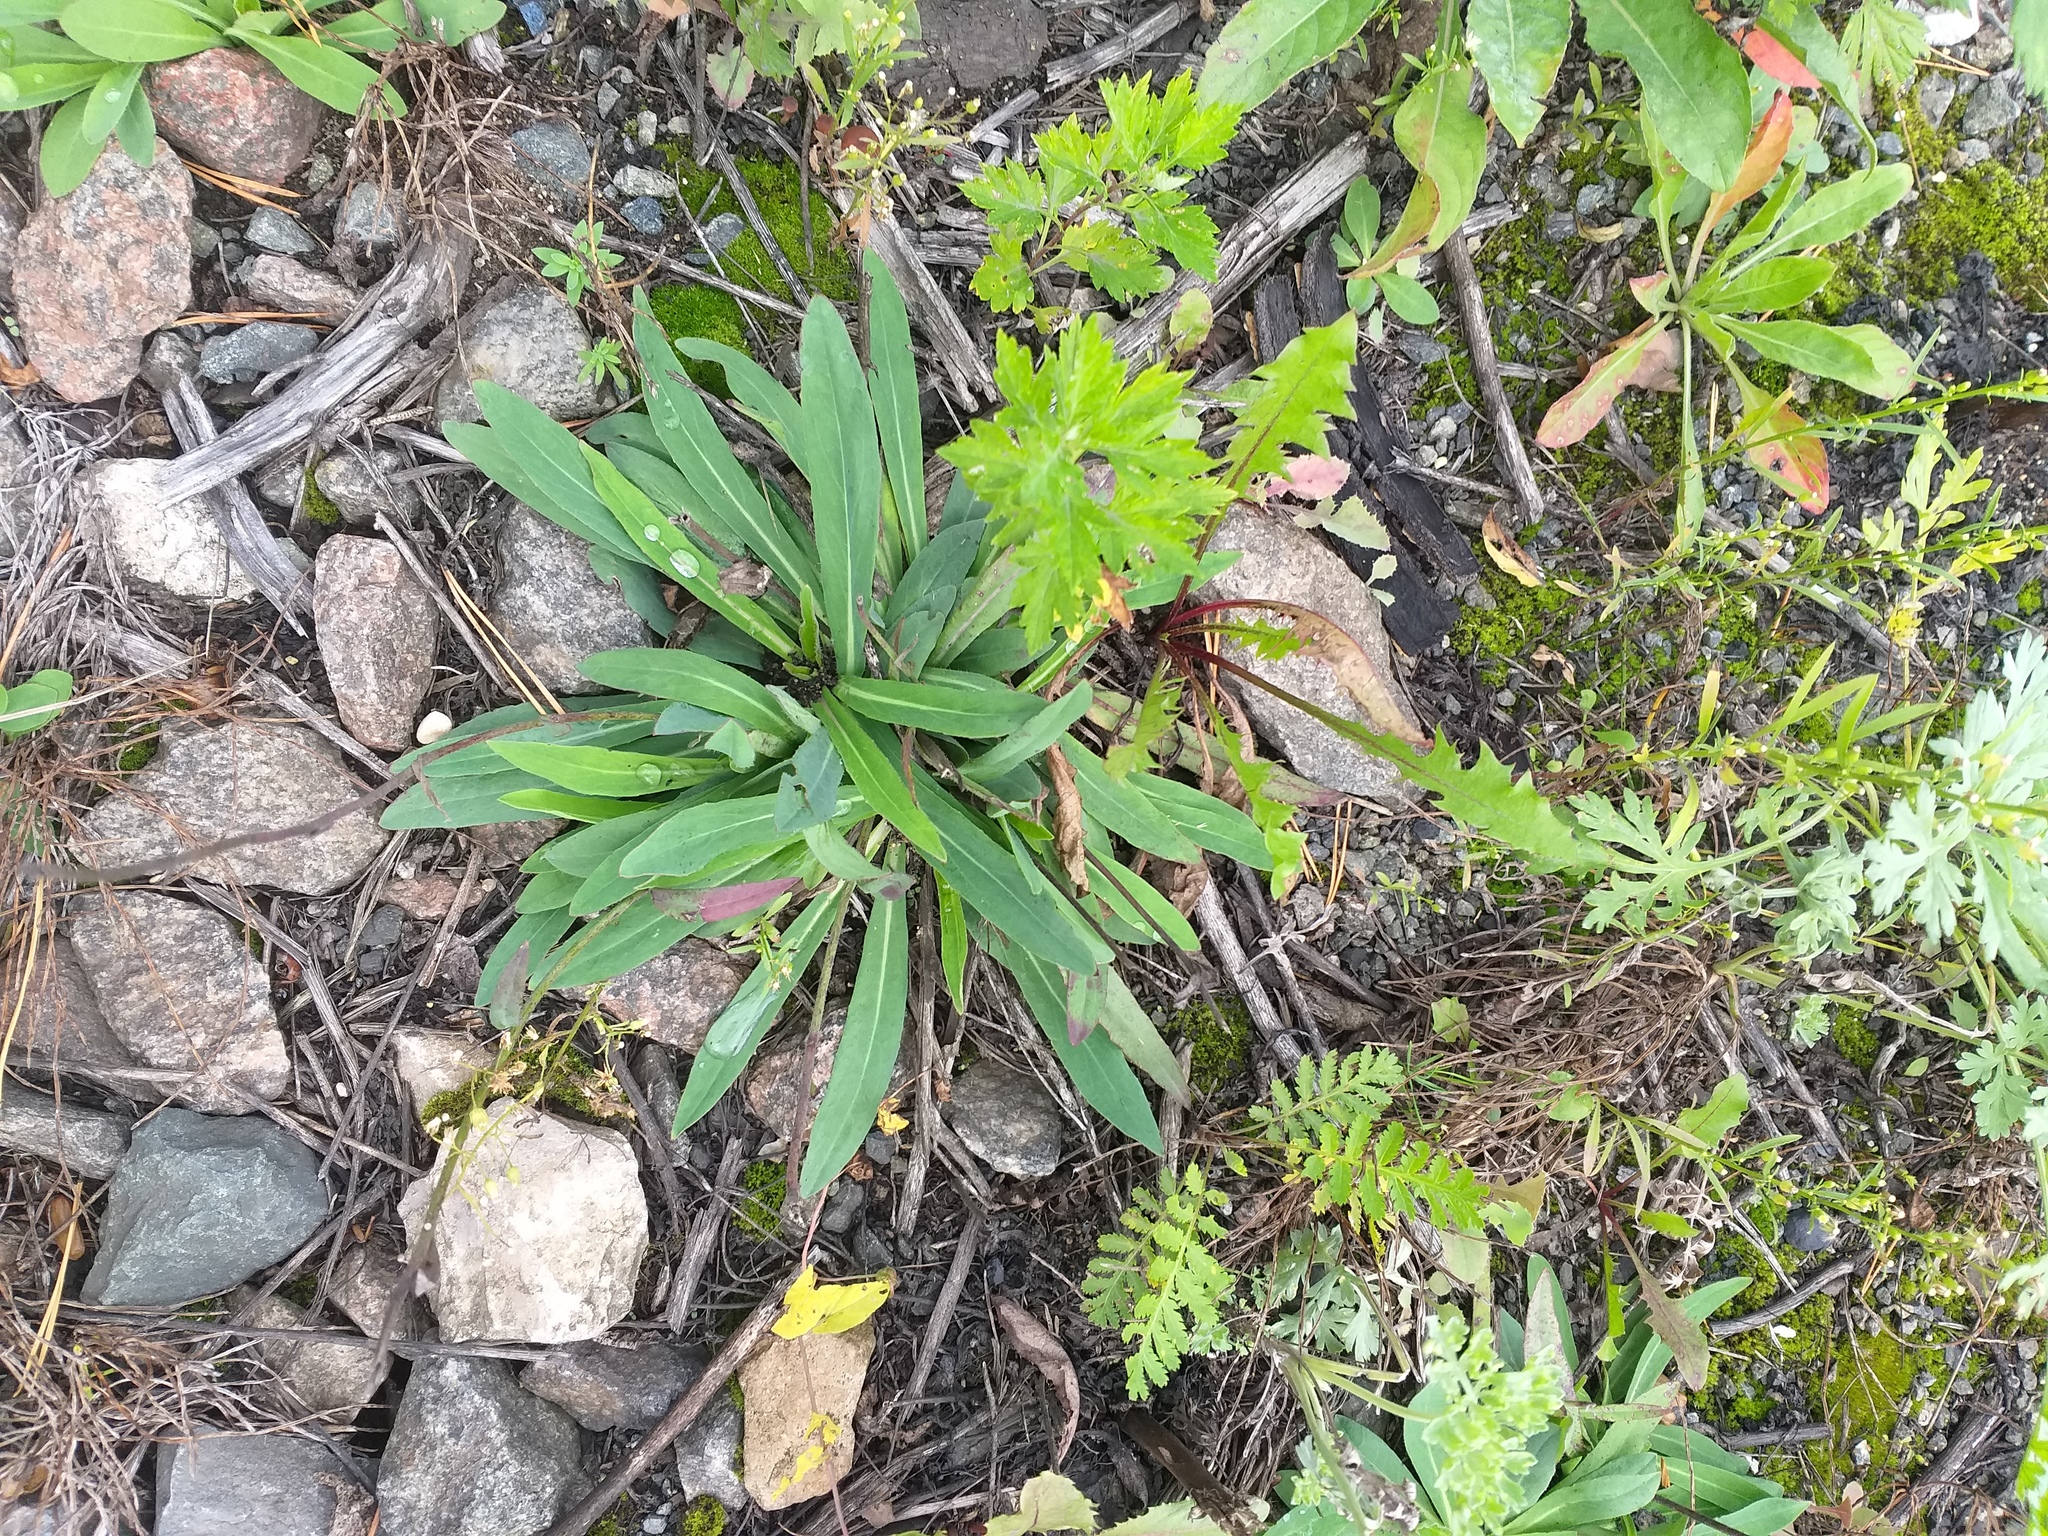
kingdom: Plantae
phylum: Tracheophyta
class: Magnoliopsida
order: Asterales
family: Asteraceae
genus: Pilosella
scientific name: Pilosella
